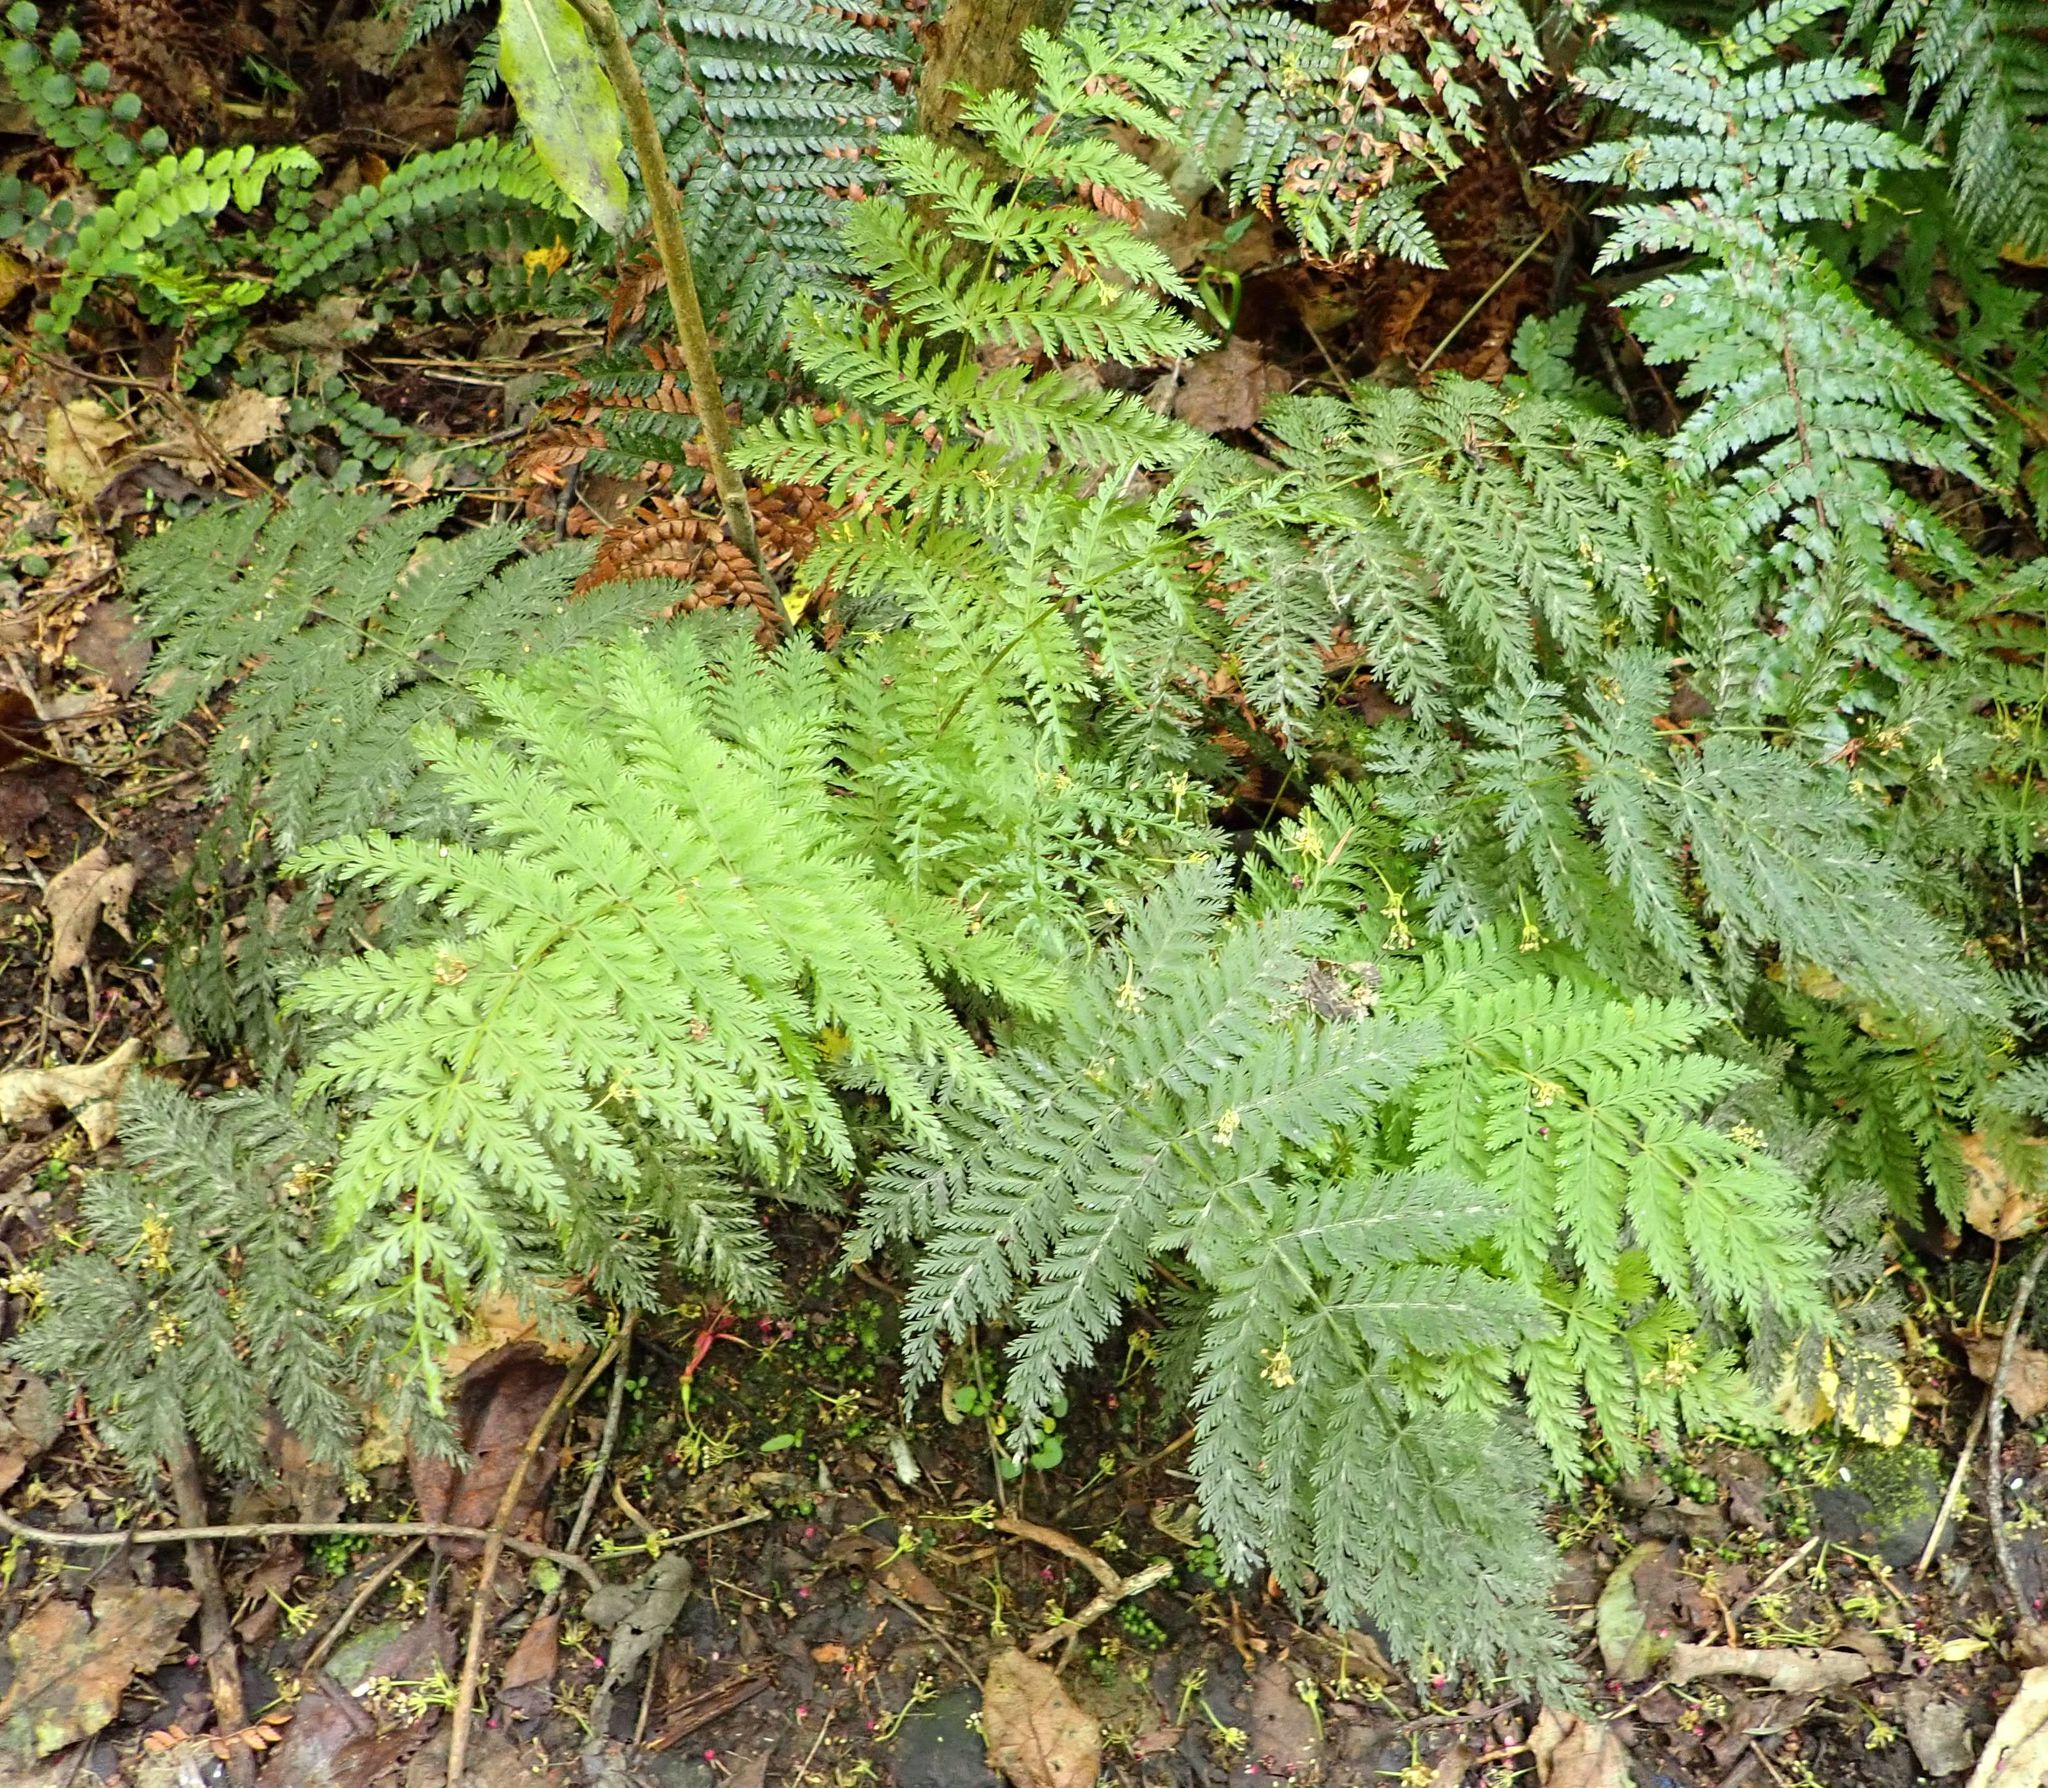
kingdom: Plantae
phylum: Tracheophyta
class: Polypodiopsida
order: Osmundales
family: Osmundaceae
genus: Leptopteris
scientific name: Leptopteris hymenophylloides
